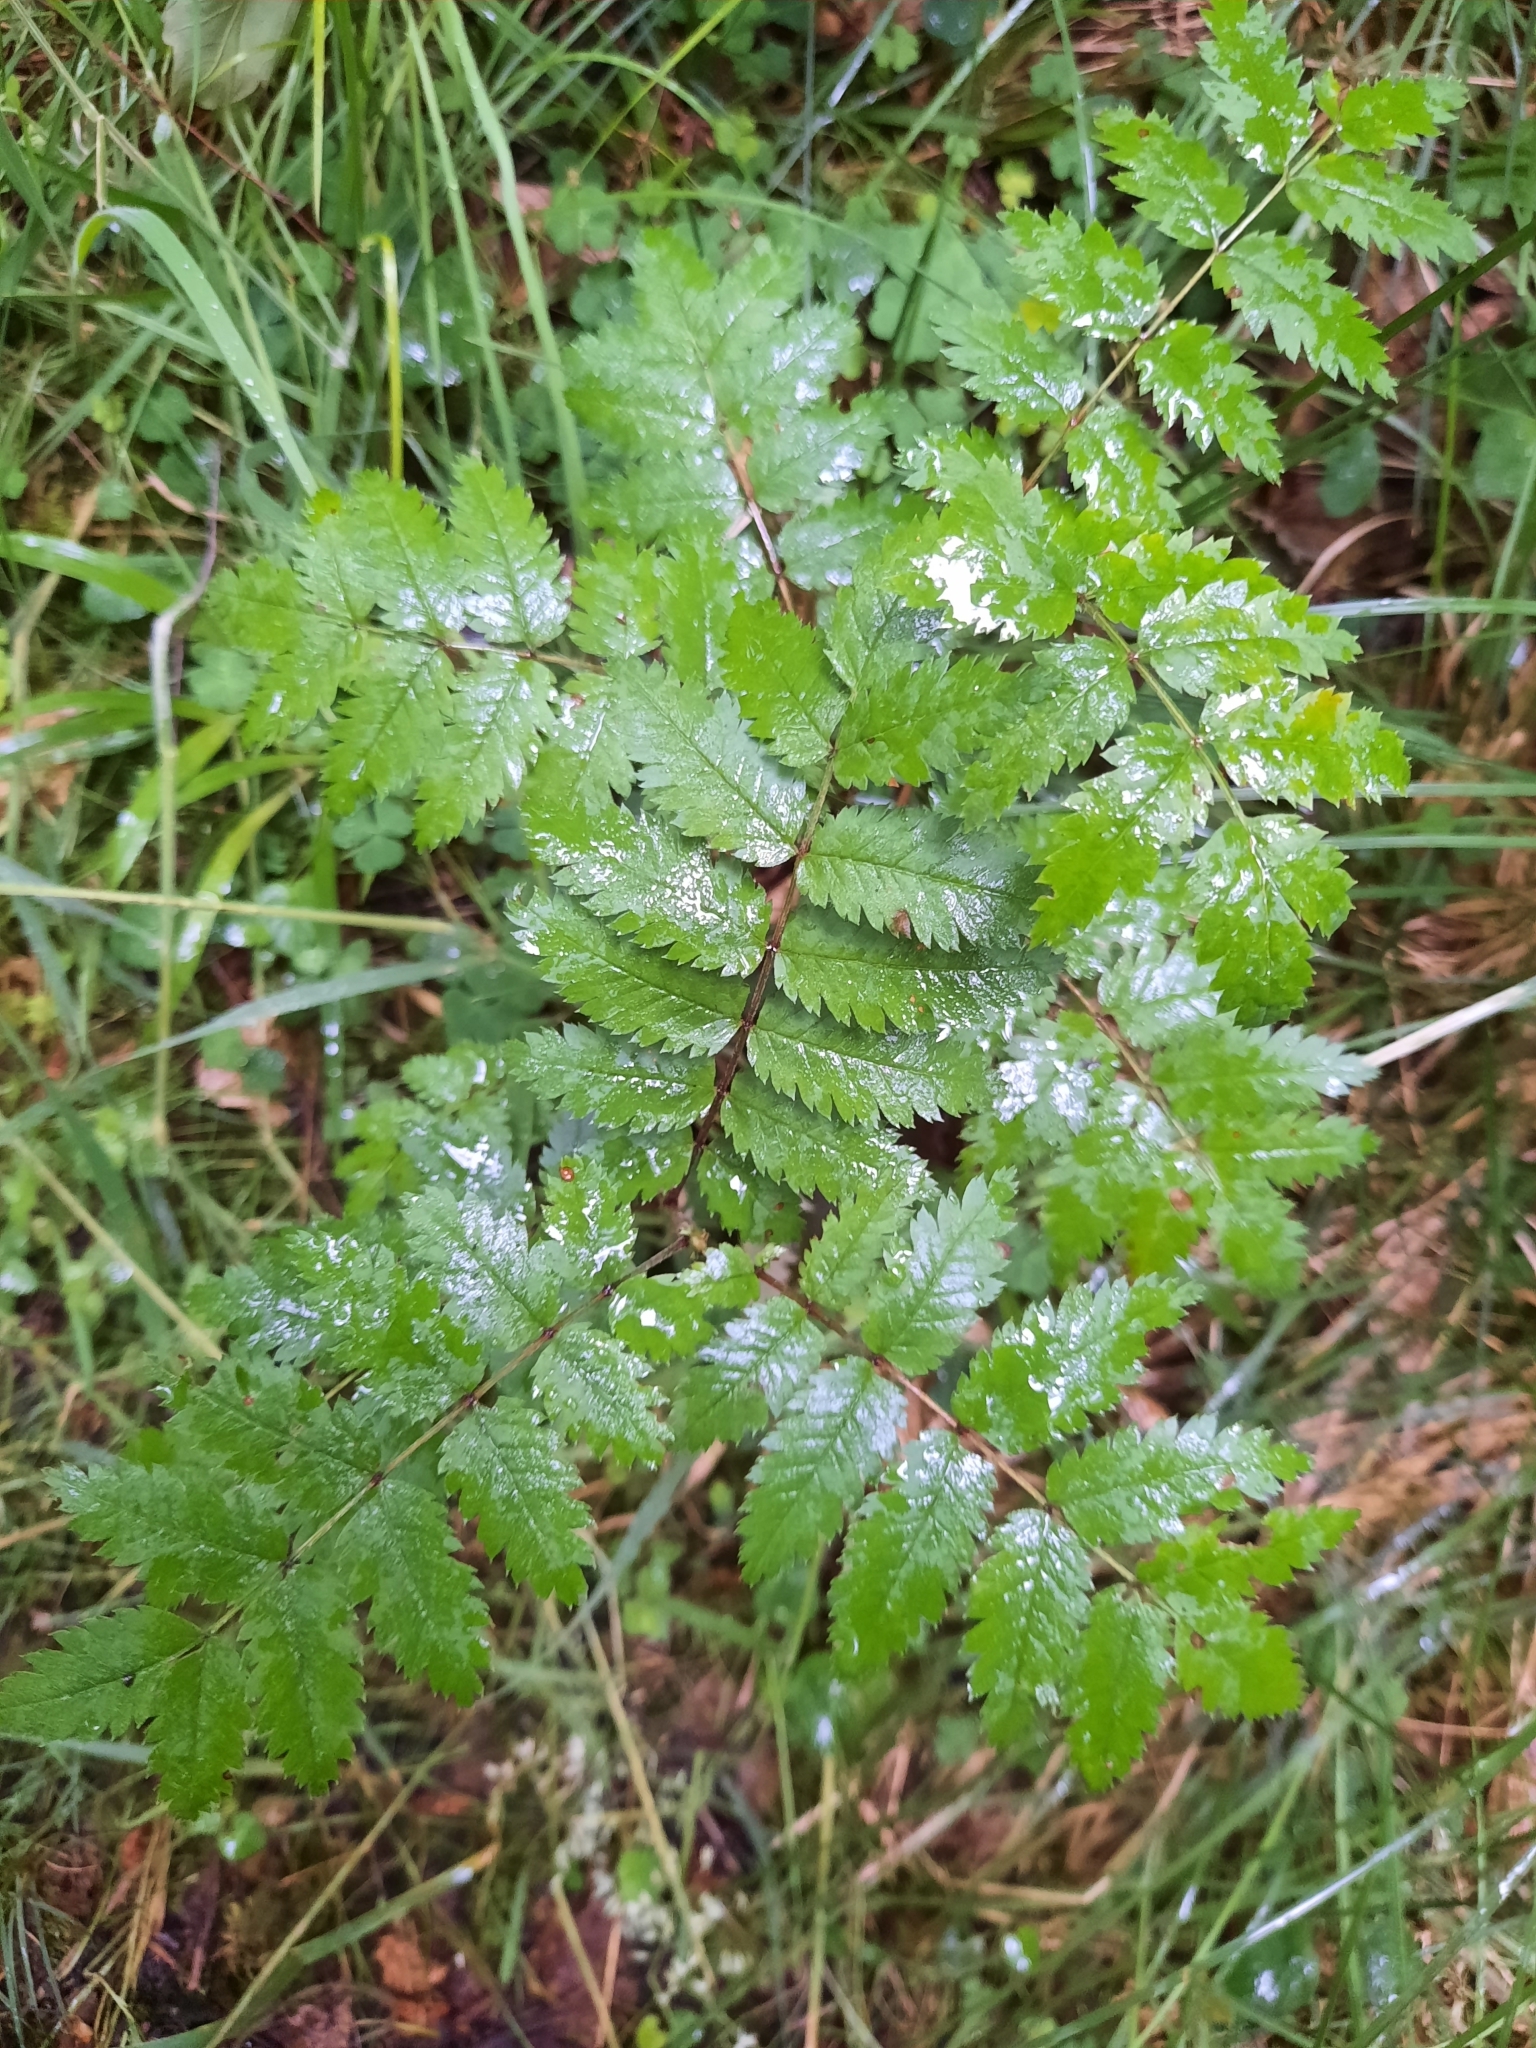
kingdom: Plantae
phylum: Tracheophyta
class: Magnoliopsida
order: Rosales
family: Rosaceae
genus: Sorbus
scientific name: Sorbus aucuparia
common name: Rowan
